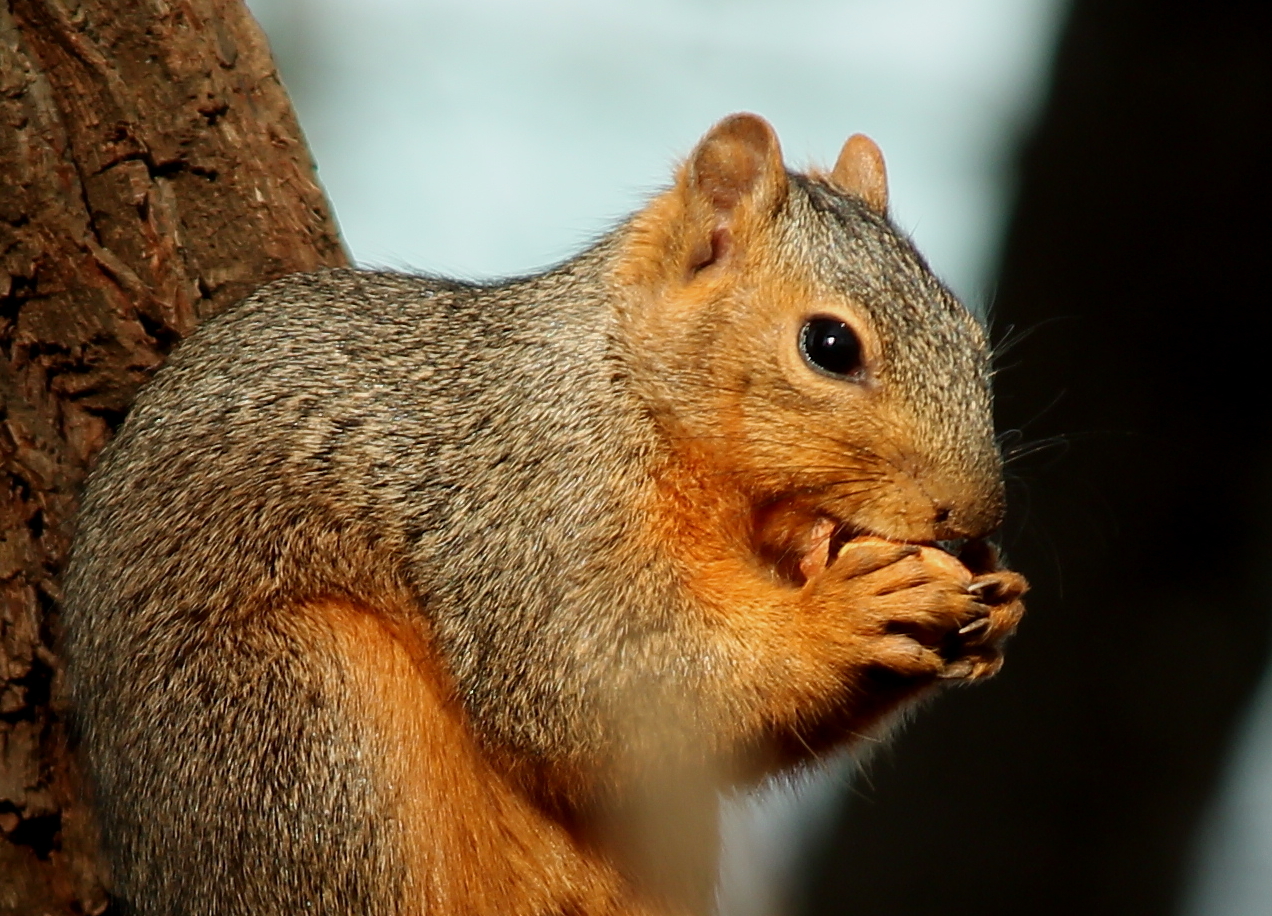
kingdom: Animalia
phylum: Chordata
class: Mammalia
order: Rodentia
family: Sciuridae
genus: Sciurus
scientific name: Sciurus niger
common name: Fox squirrel
